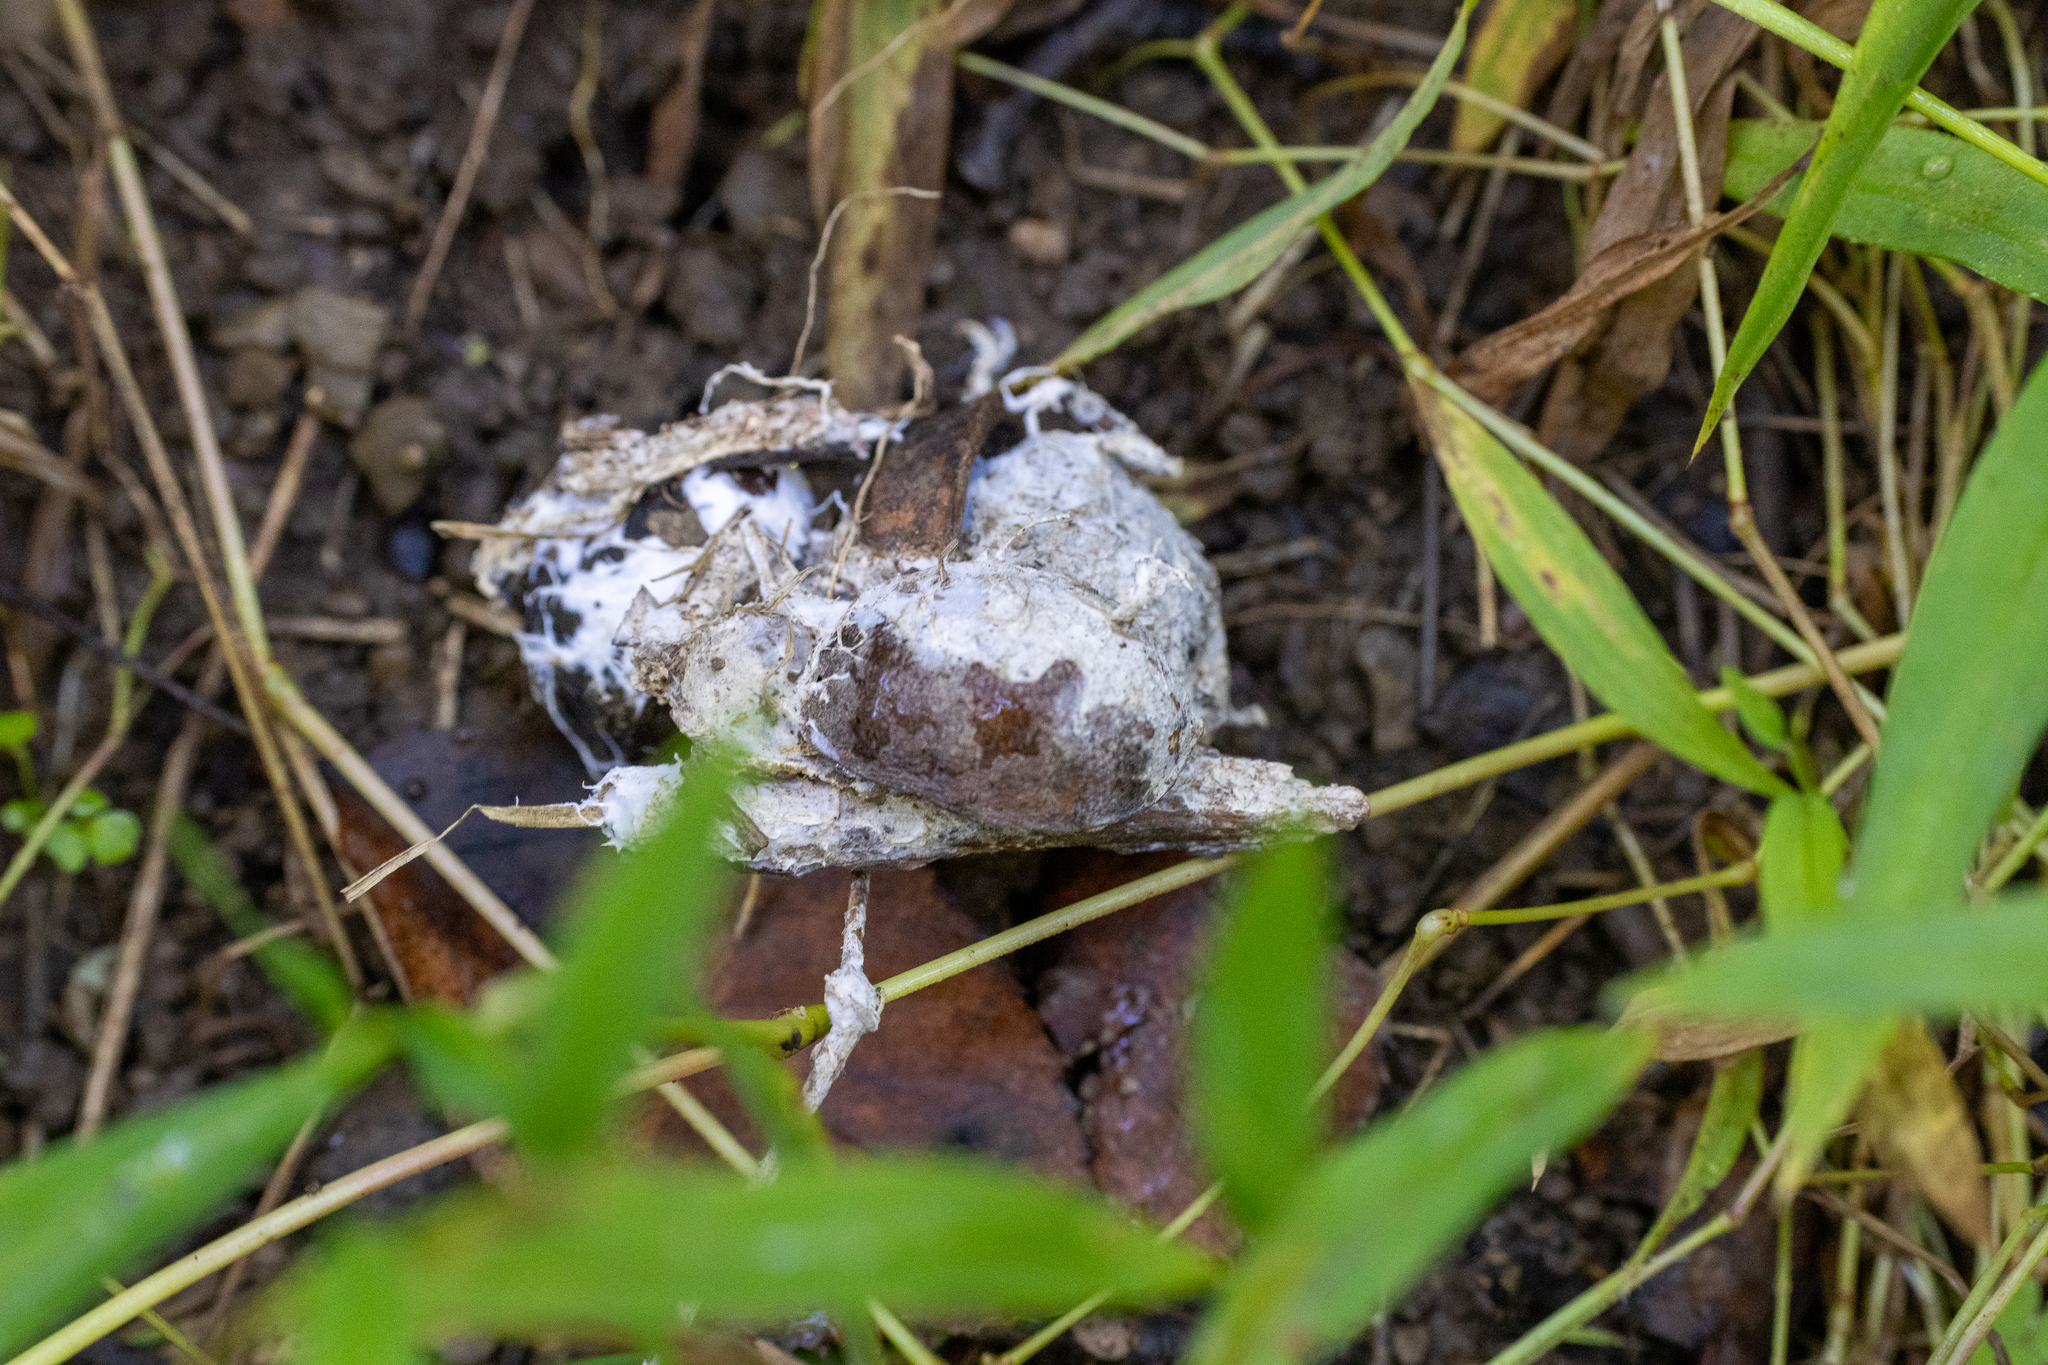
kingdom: Fungi
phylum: Basidiomycota
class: Agaricomycetes
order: Sebacinales
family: Sebacinaceae
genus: Sebacina
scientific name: Sebacina incrustans
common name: Enveloping crust
